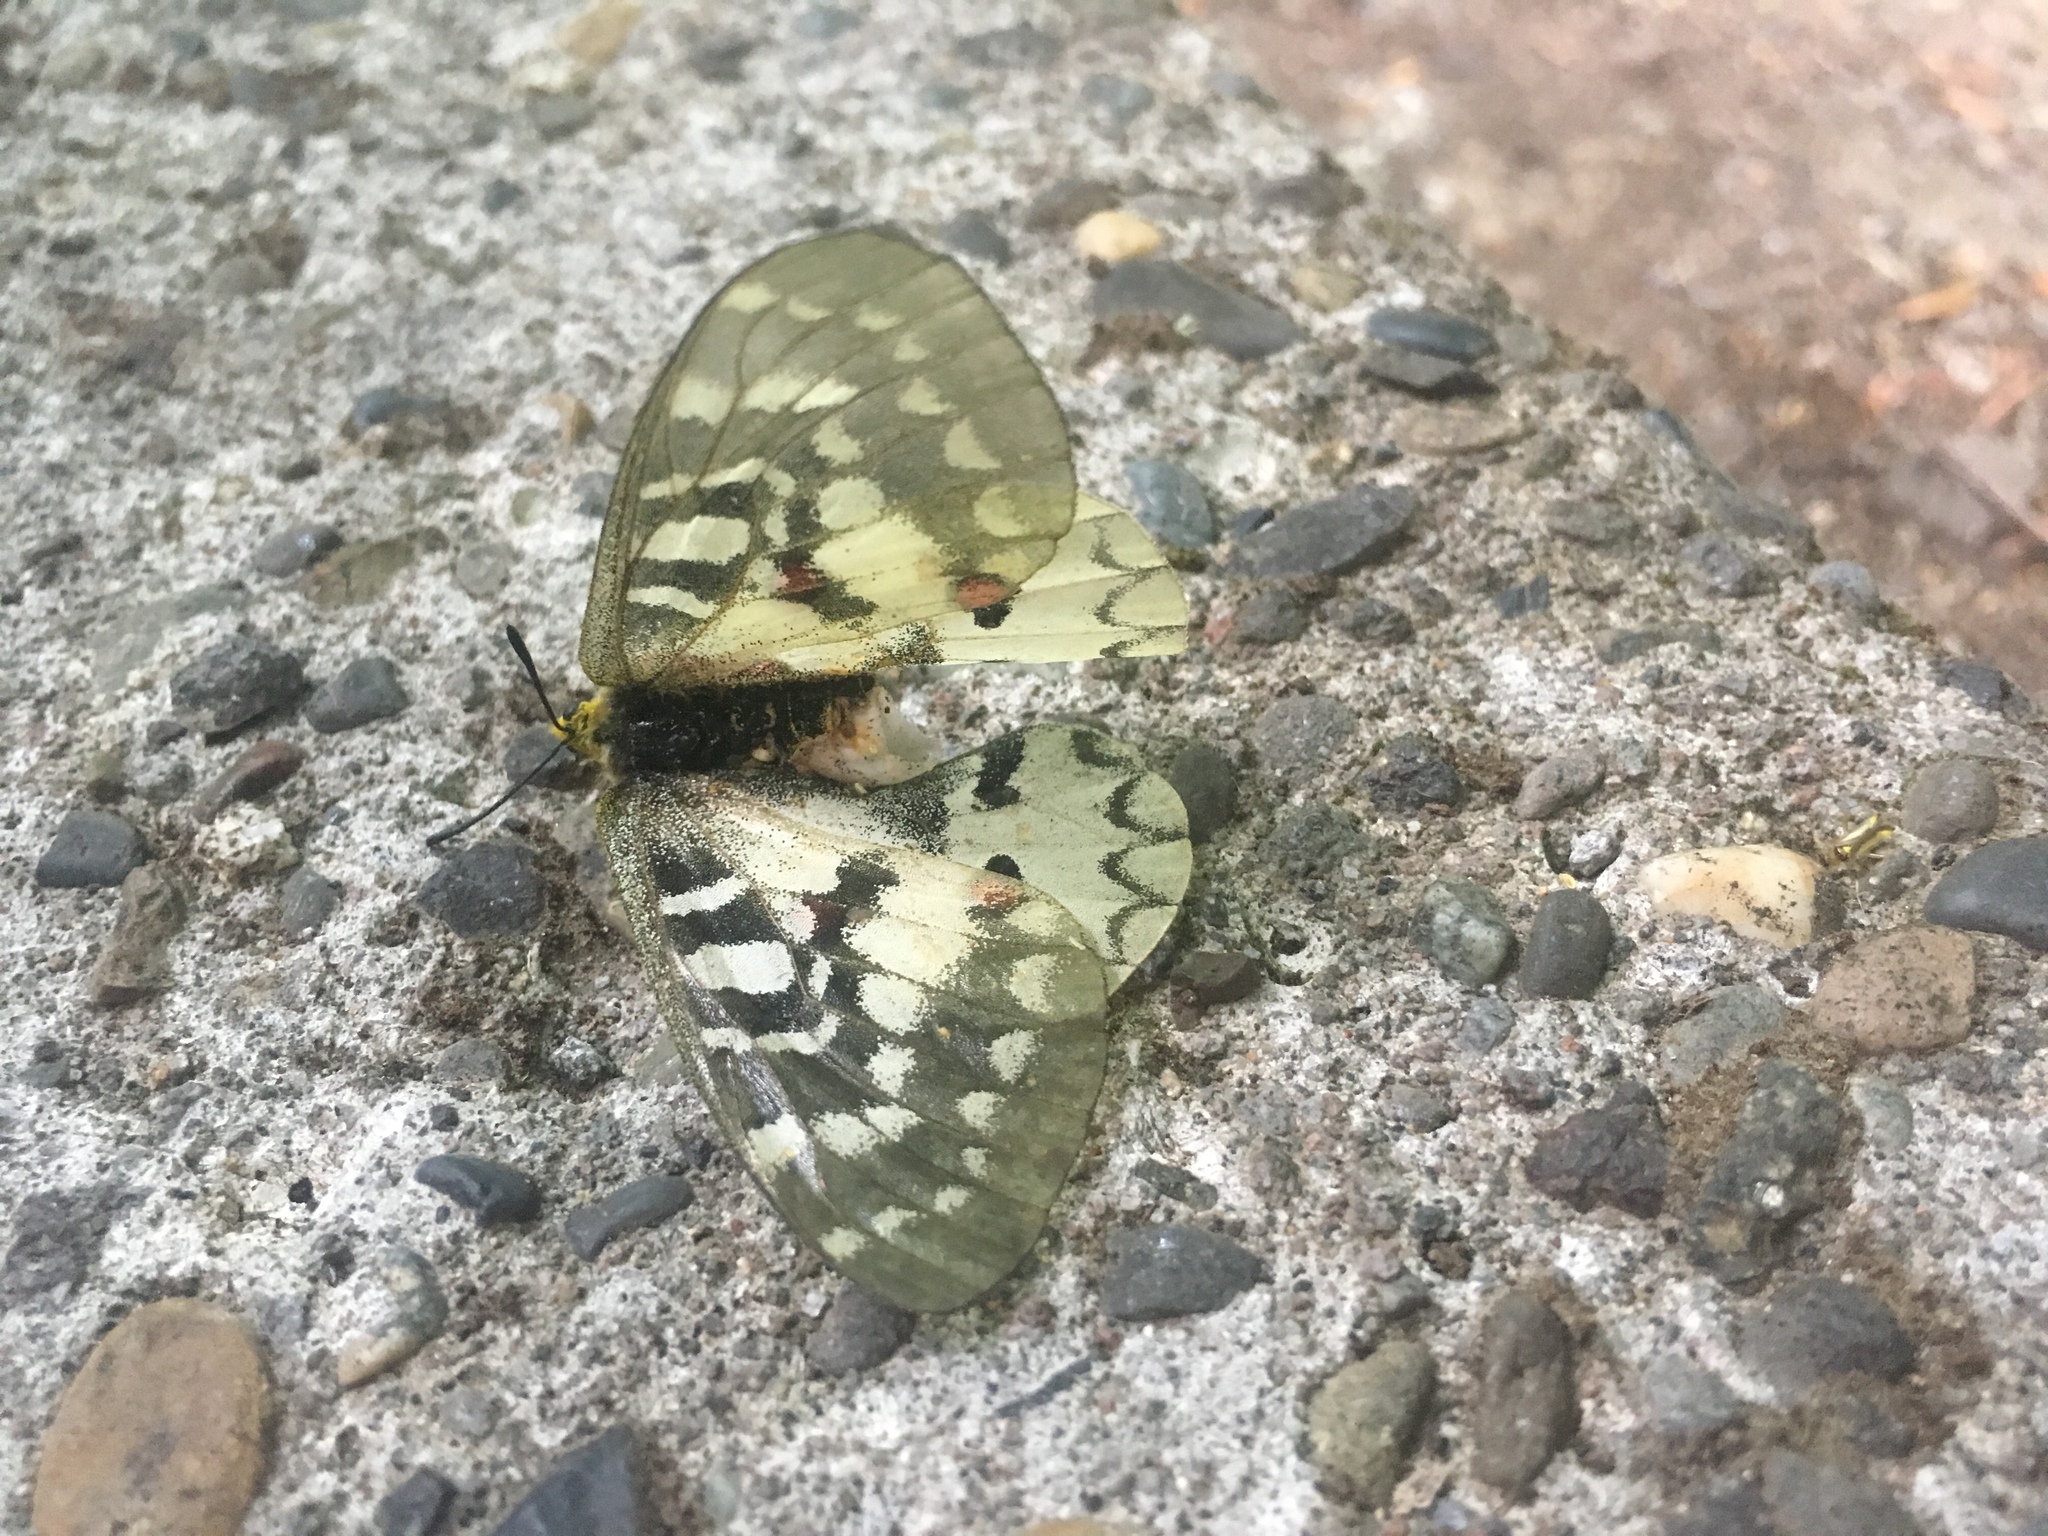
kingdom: Animalia
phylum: Arthropoda
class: Insecta
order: Lepidoptera
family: Papilionidae
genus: Parnassius
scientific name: Parnassius clodius
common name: American apollo
